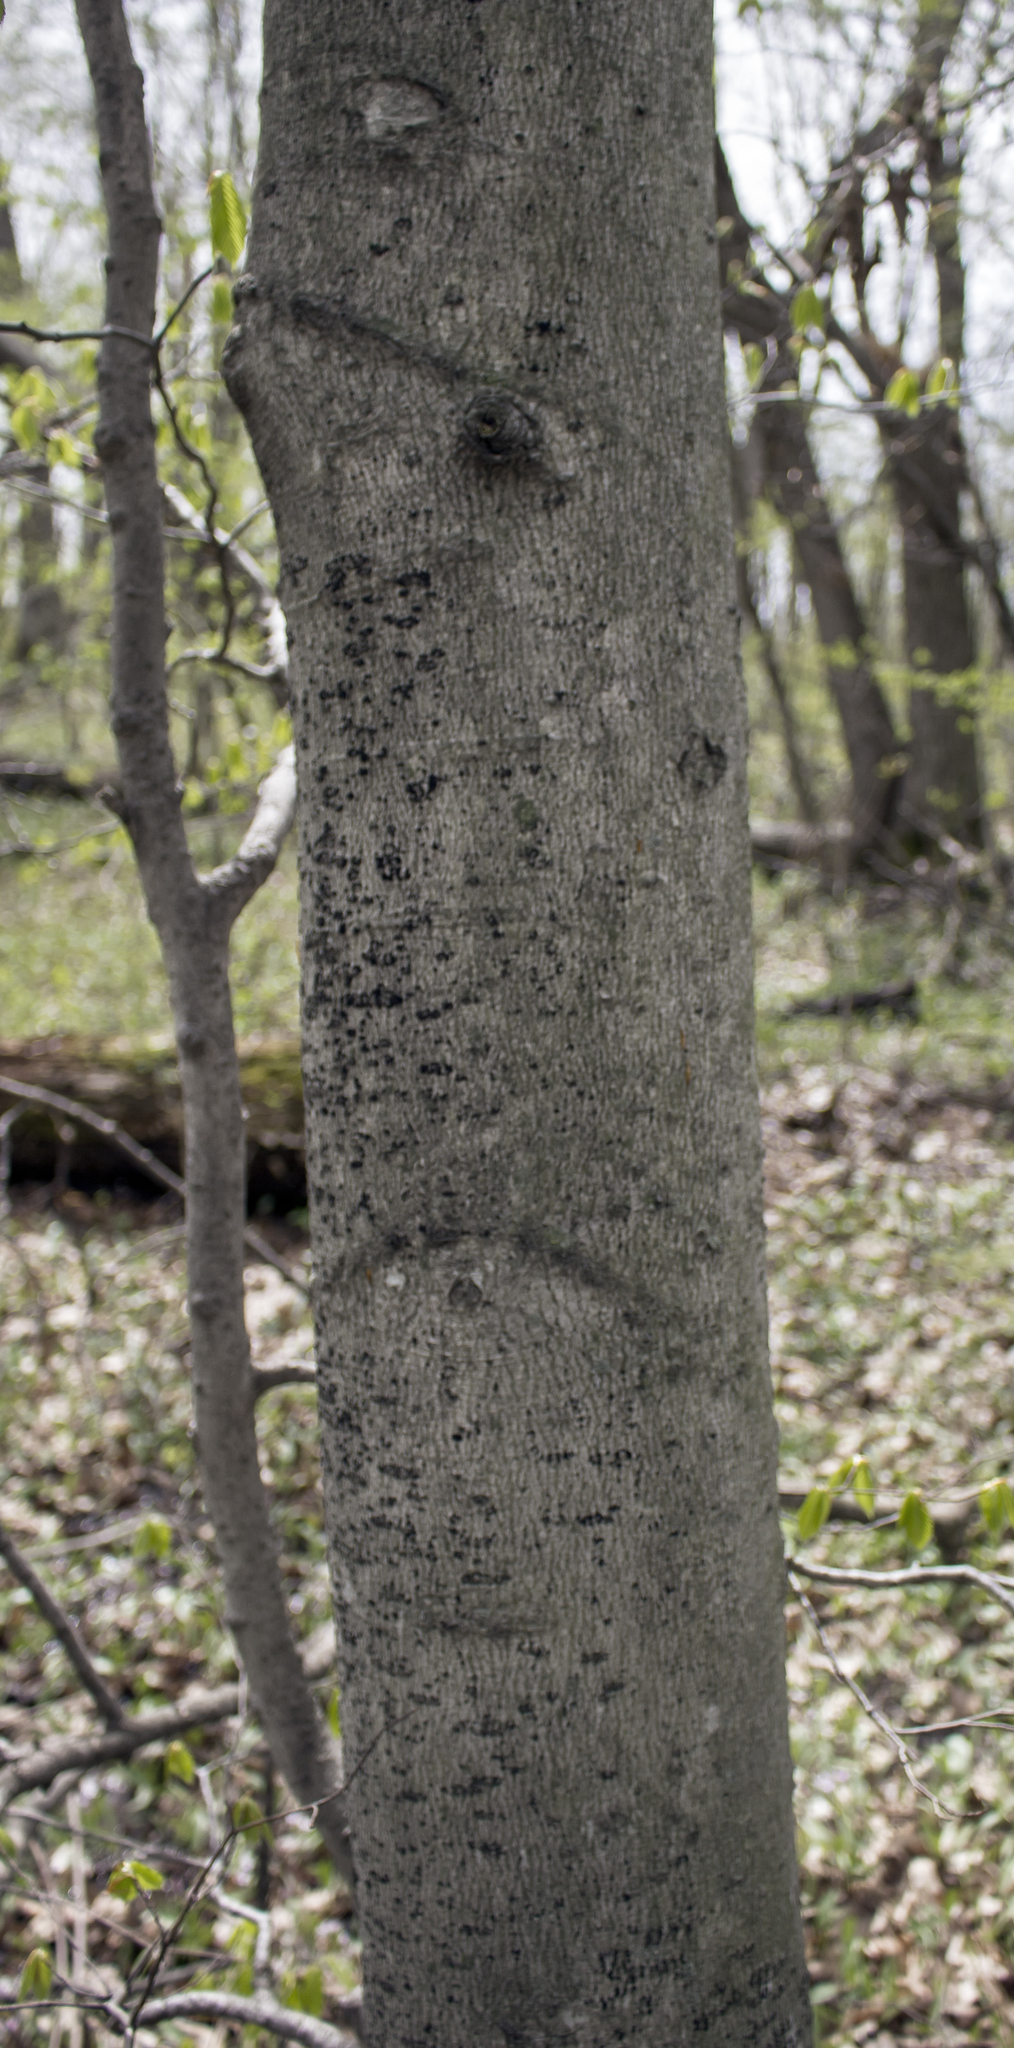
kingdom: Plantae
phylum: Tracheophyta
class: Magnoliopsida
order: Fagales
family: Fagaceae
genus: Fagus
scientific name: Fagus grandifolia
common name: American beech
